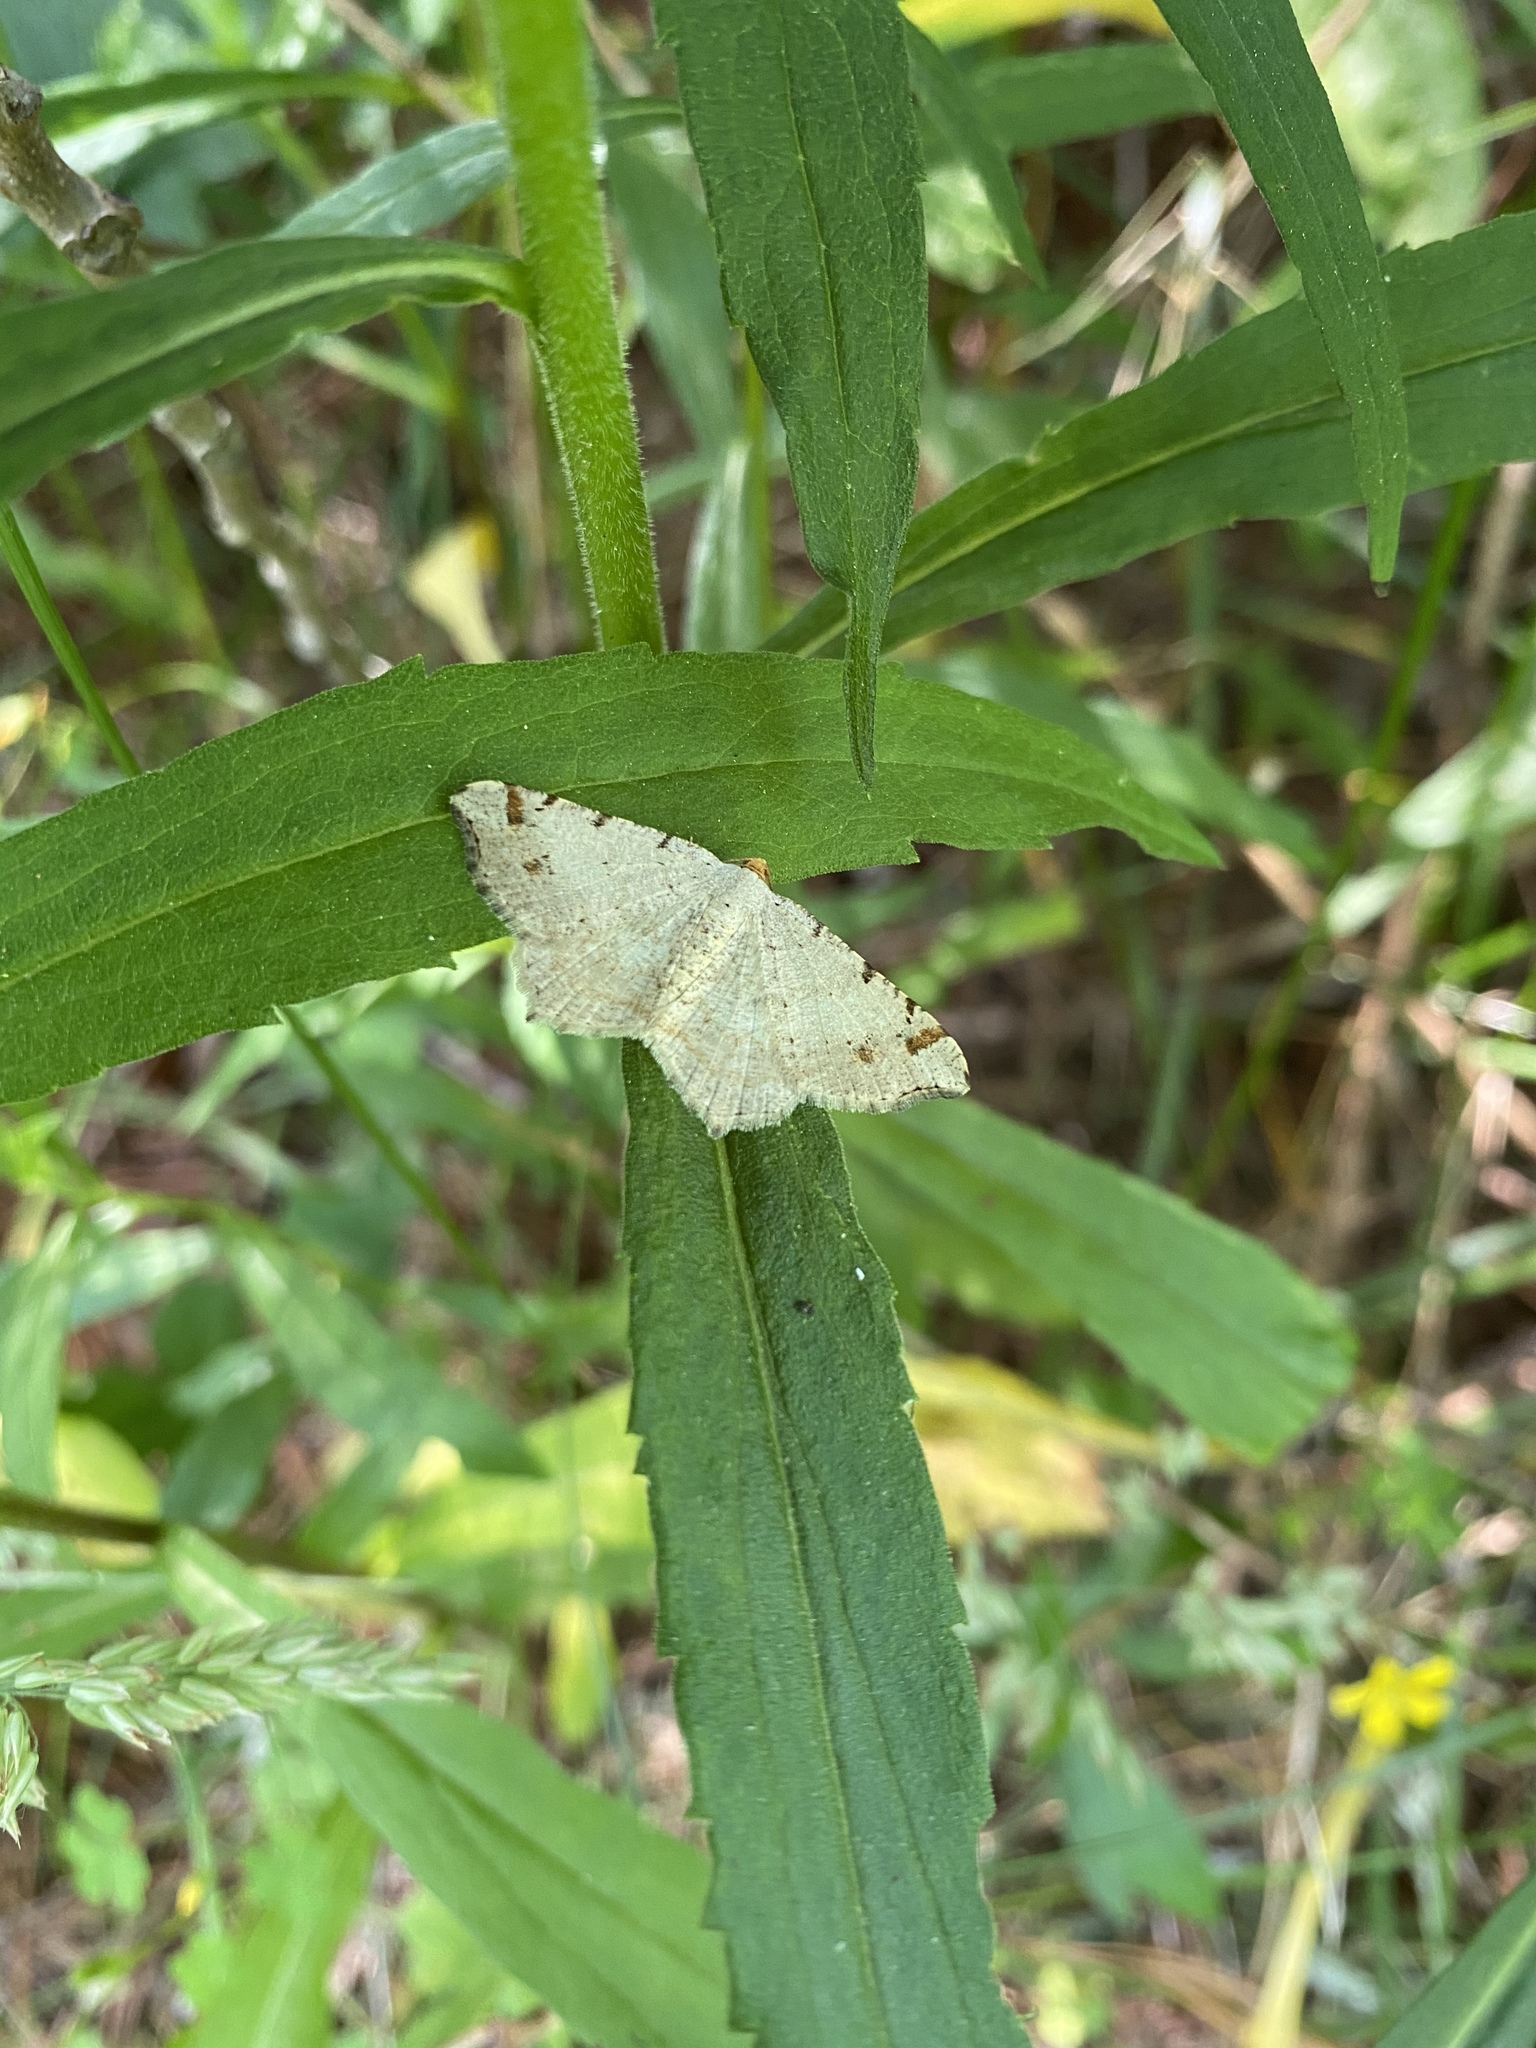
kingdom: Animalia
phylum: Arthropoda
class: Insecta
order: Lepidoptera
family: Geometridae
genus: Macaria
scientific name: Macaria bisignata
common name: Red-headed inchworm
